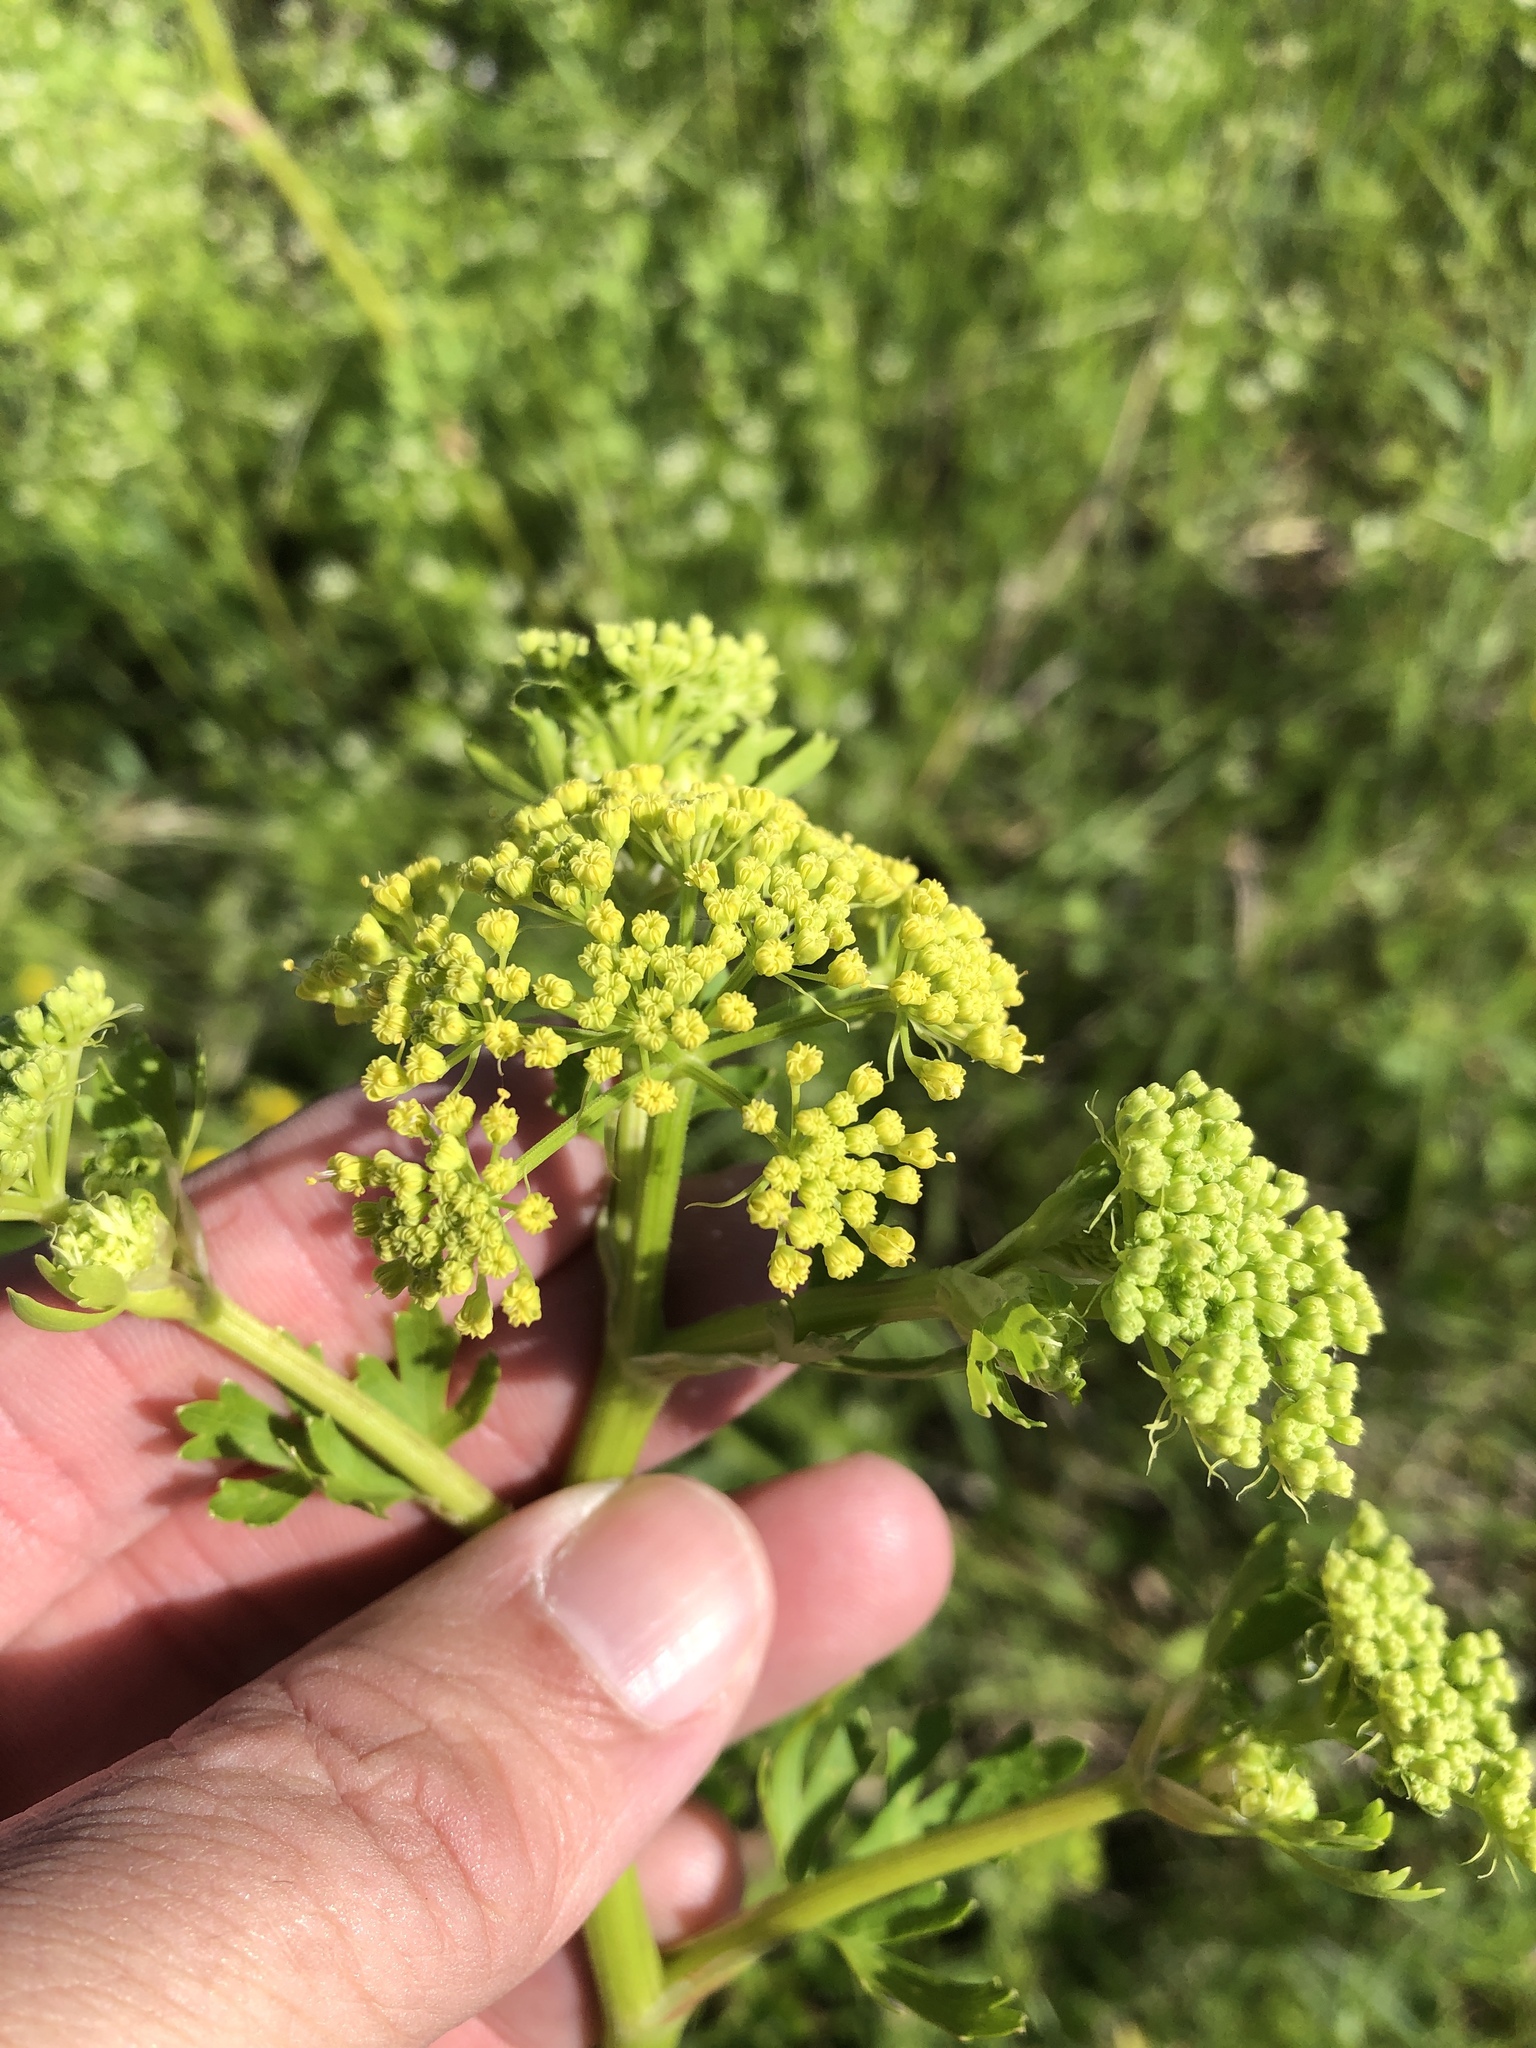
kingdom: Plantae
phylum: Tracheophyta
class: Magnoliopsida
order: Apiales
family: Apiaceae
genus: Polytaenia
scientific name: Polytaenia texana
